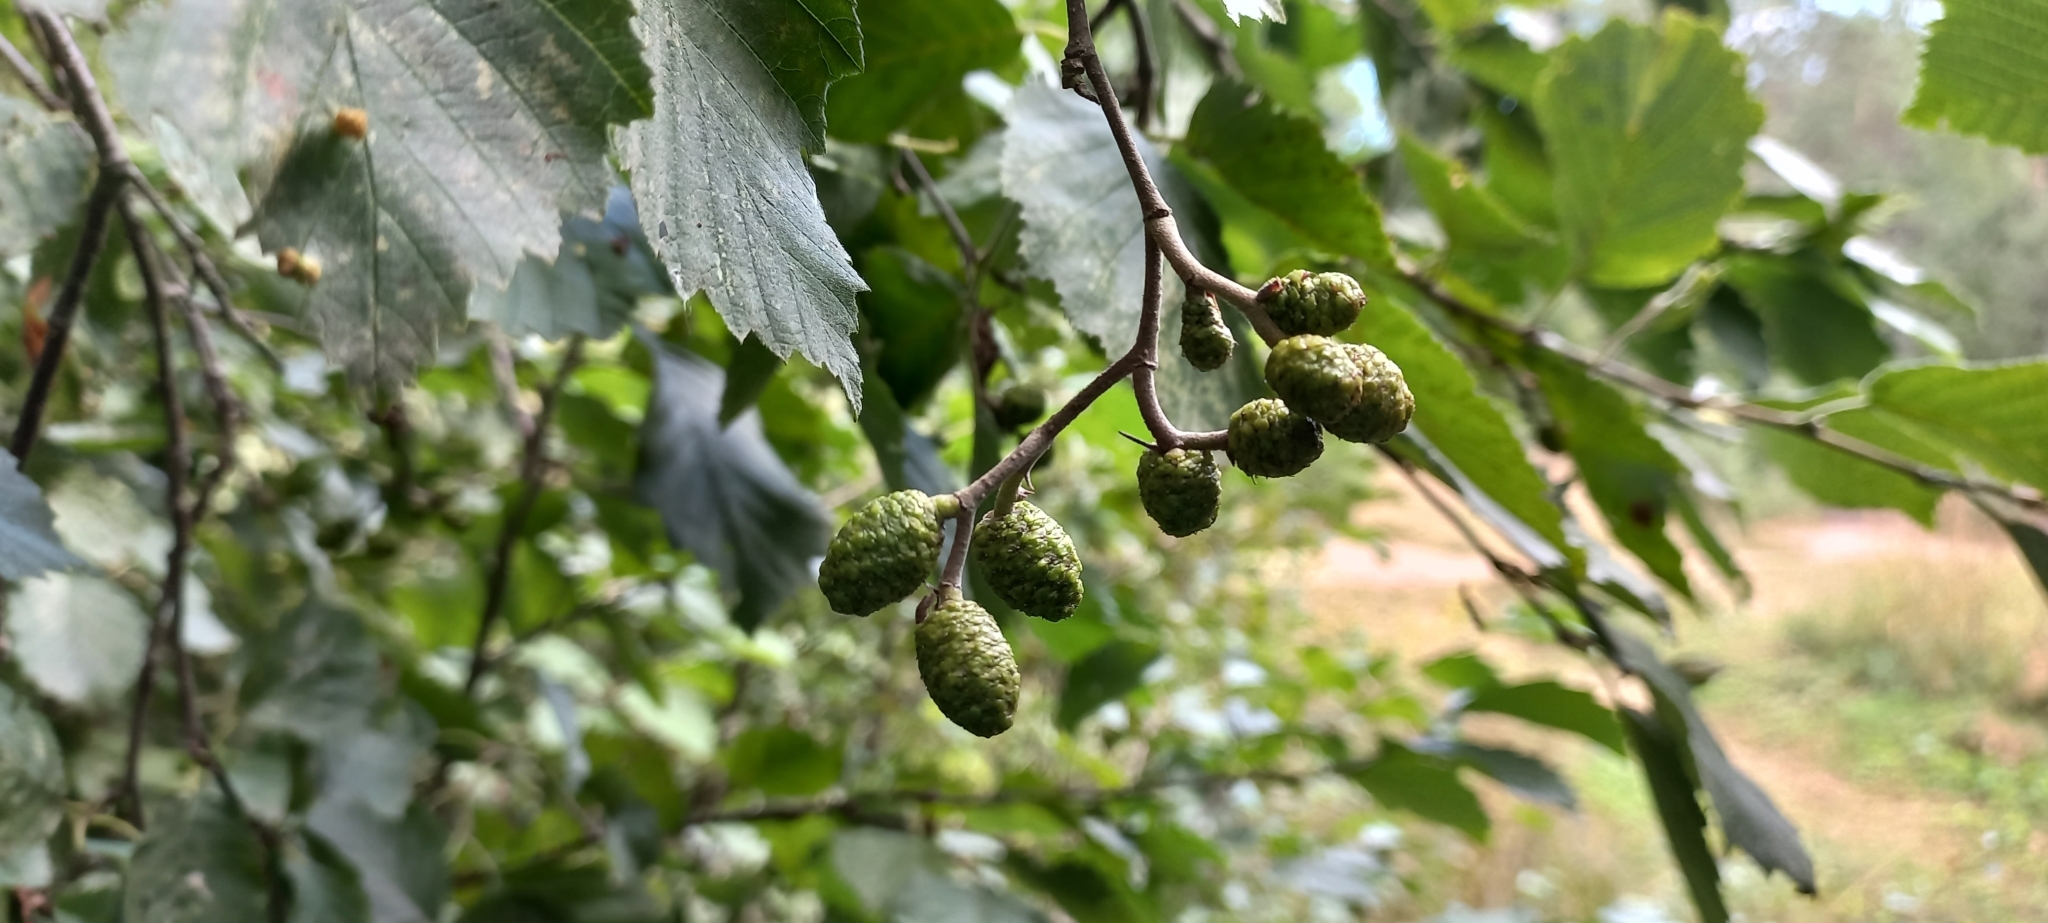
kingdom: Plantae
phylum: Tracheophyta
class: Magnoliopsida
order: Fagales
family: Betulaceae
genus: Alnus
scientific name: Alnus incana
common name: Grey alder
